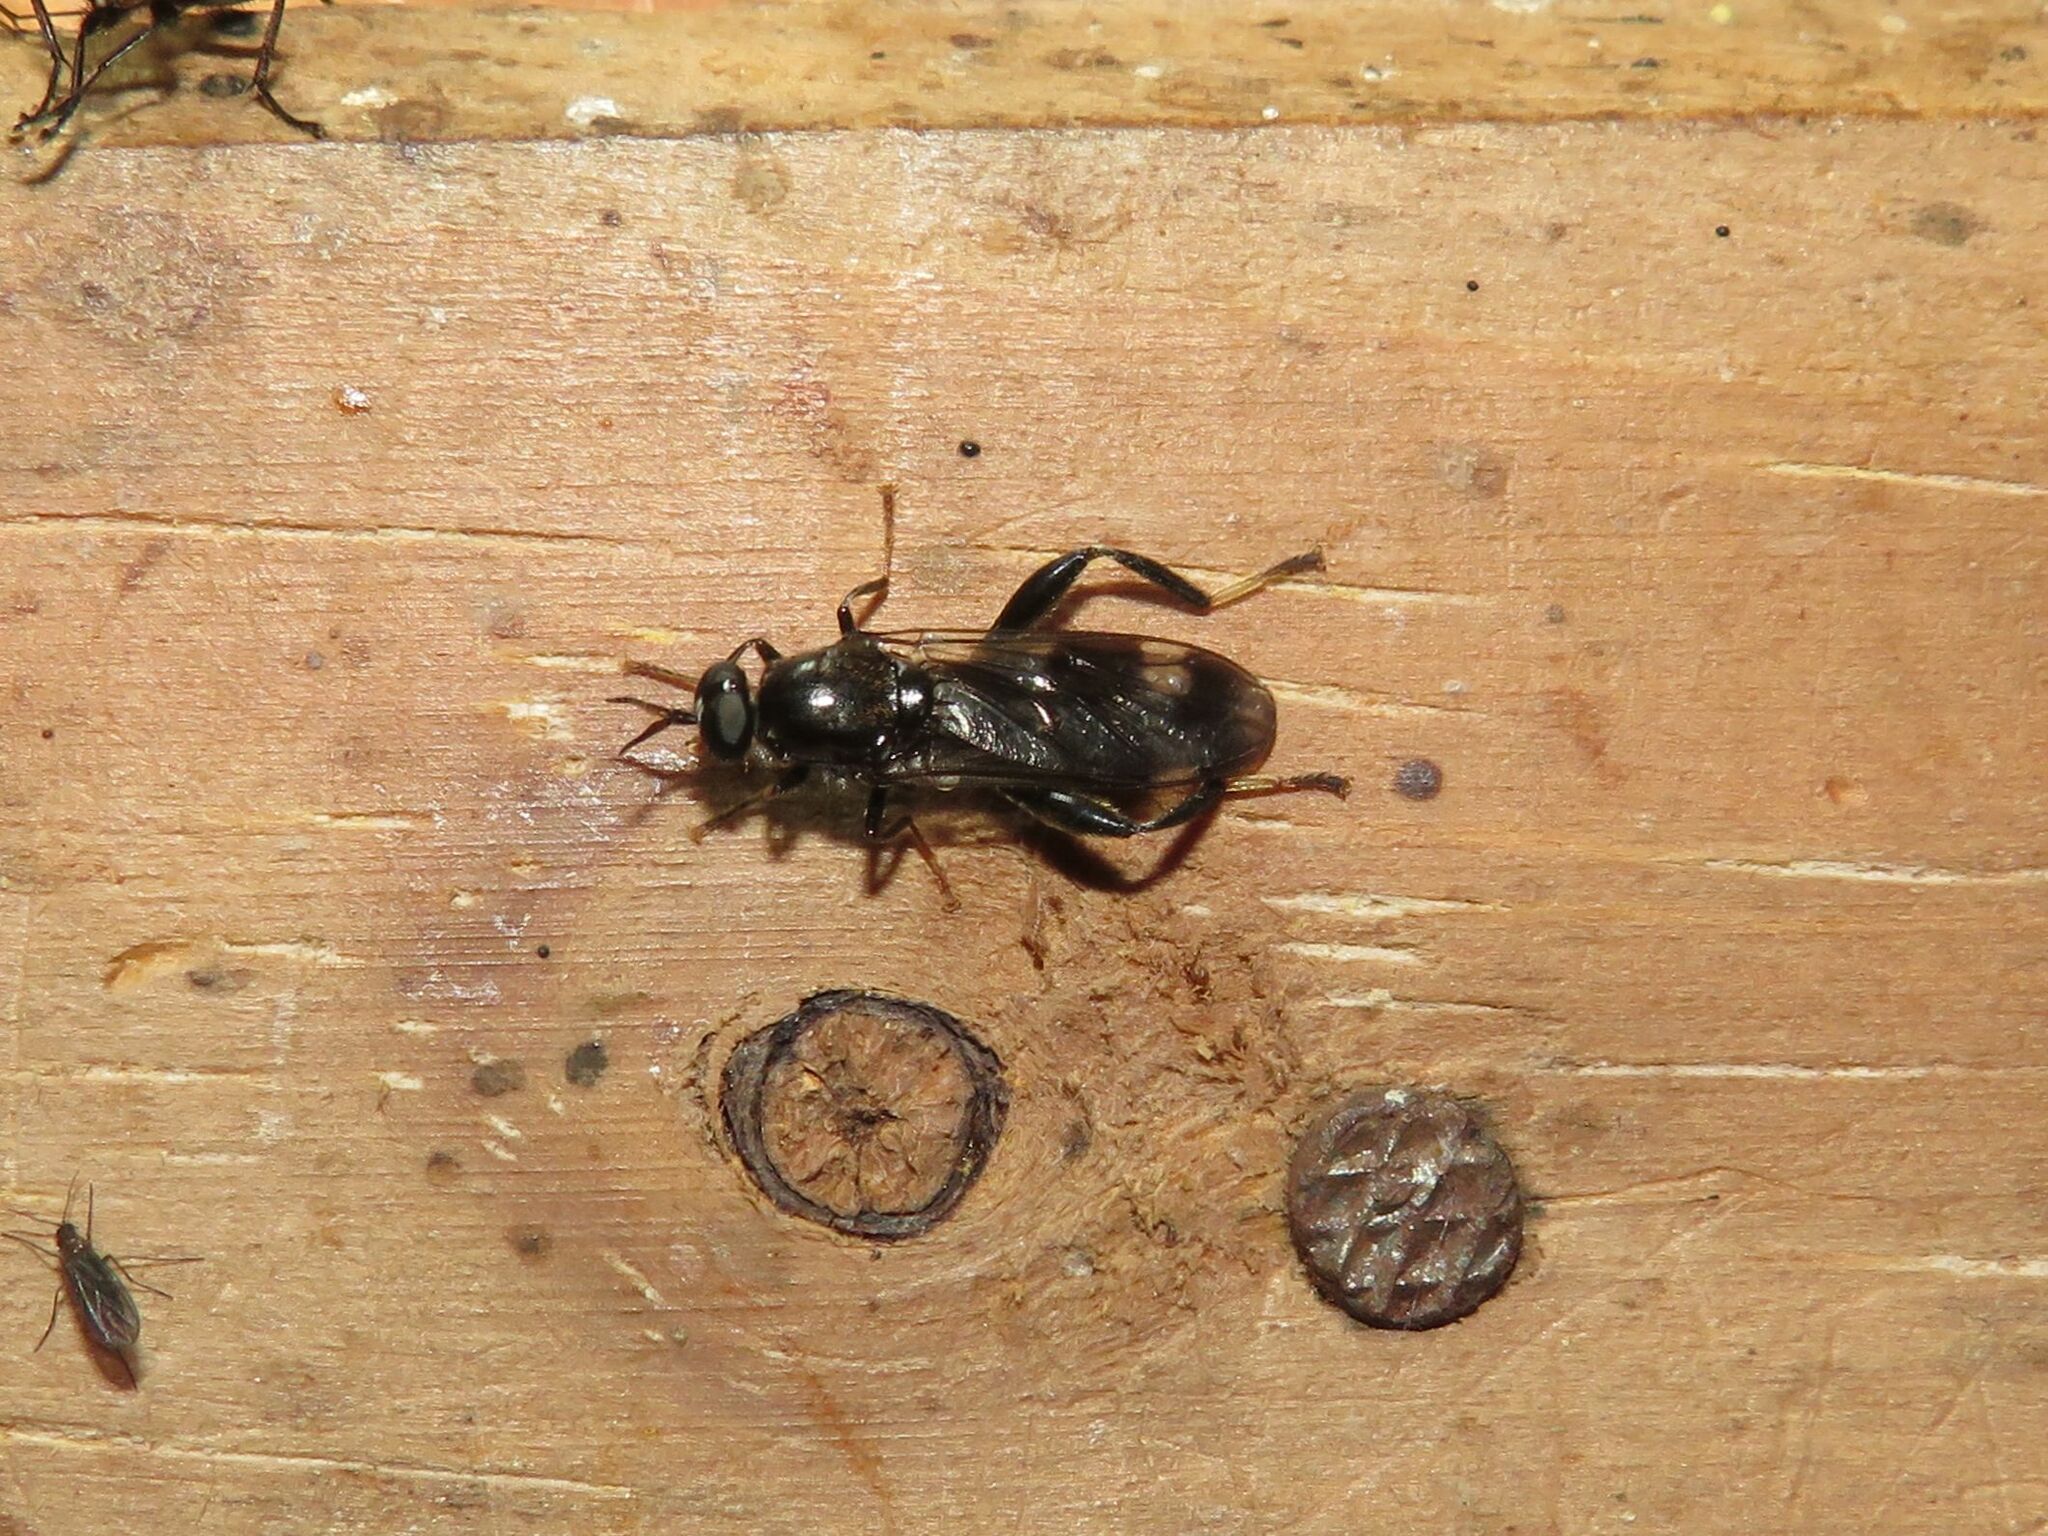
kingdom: Animalia
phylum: Arthropoda
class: Insecta
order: Diptera
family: Stratiomyidae
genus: Exaireta
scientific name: Exaireta spinigera
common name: Blue soldier fly
